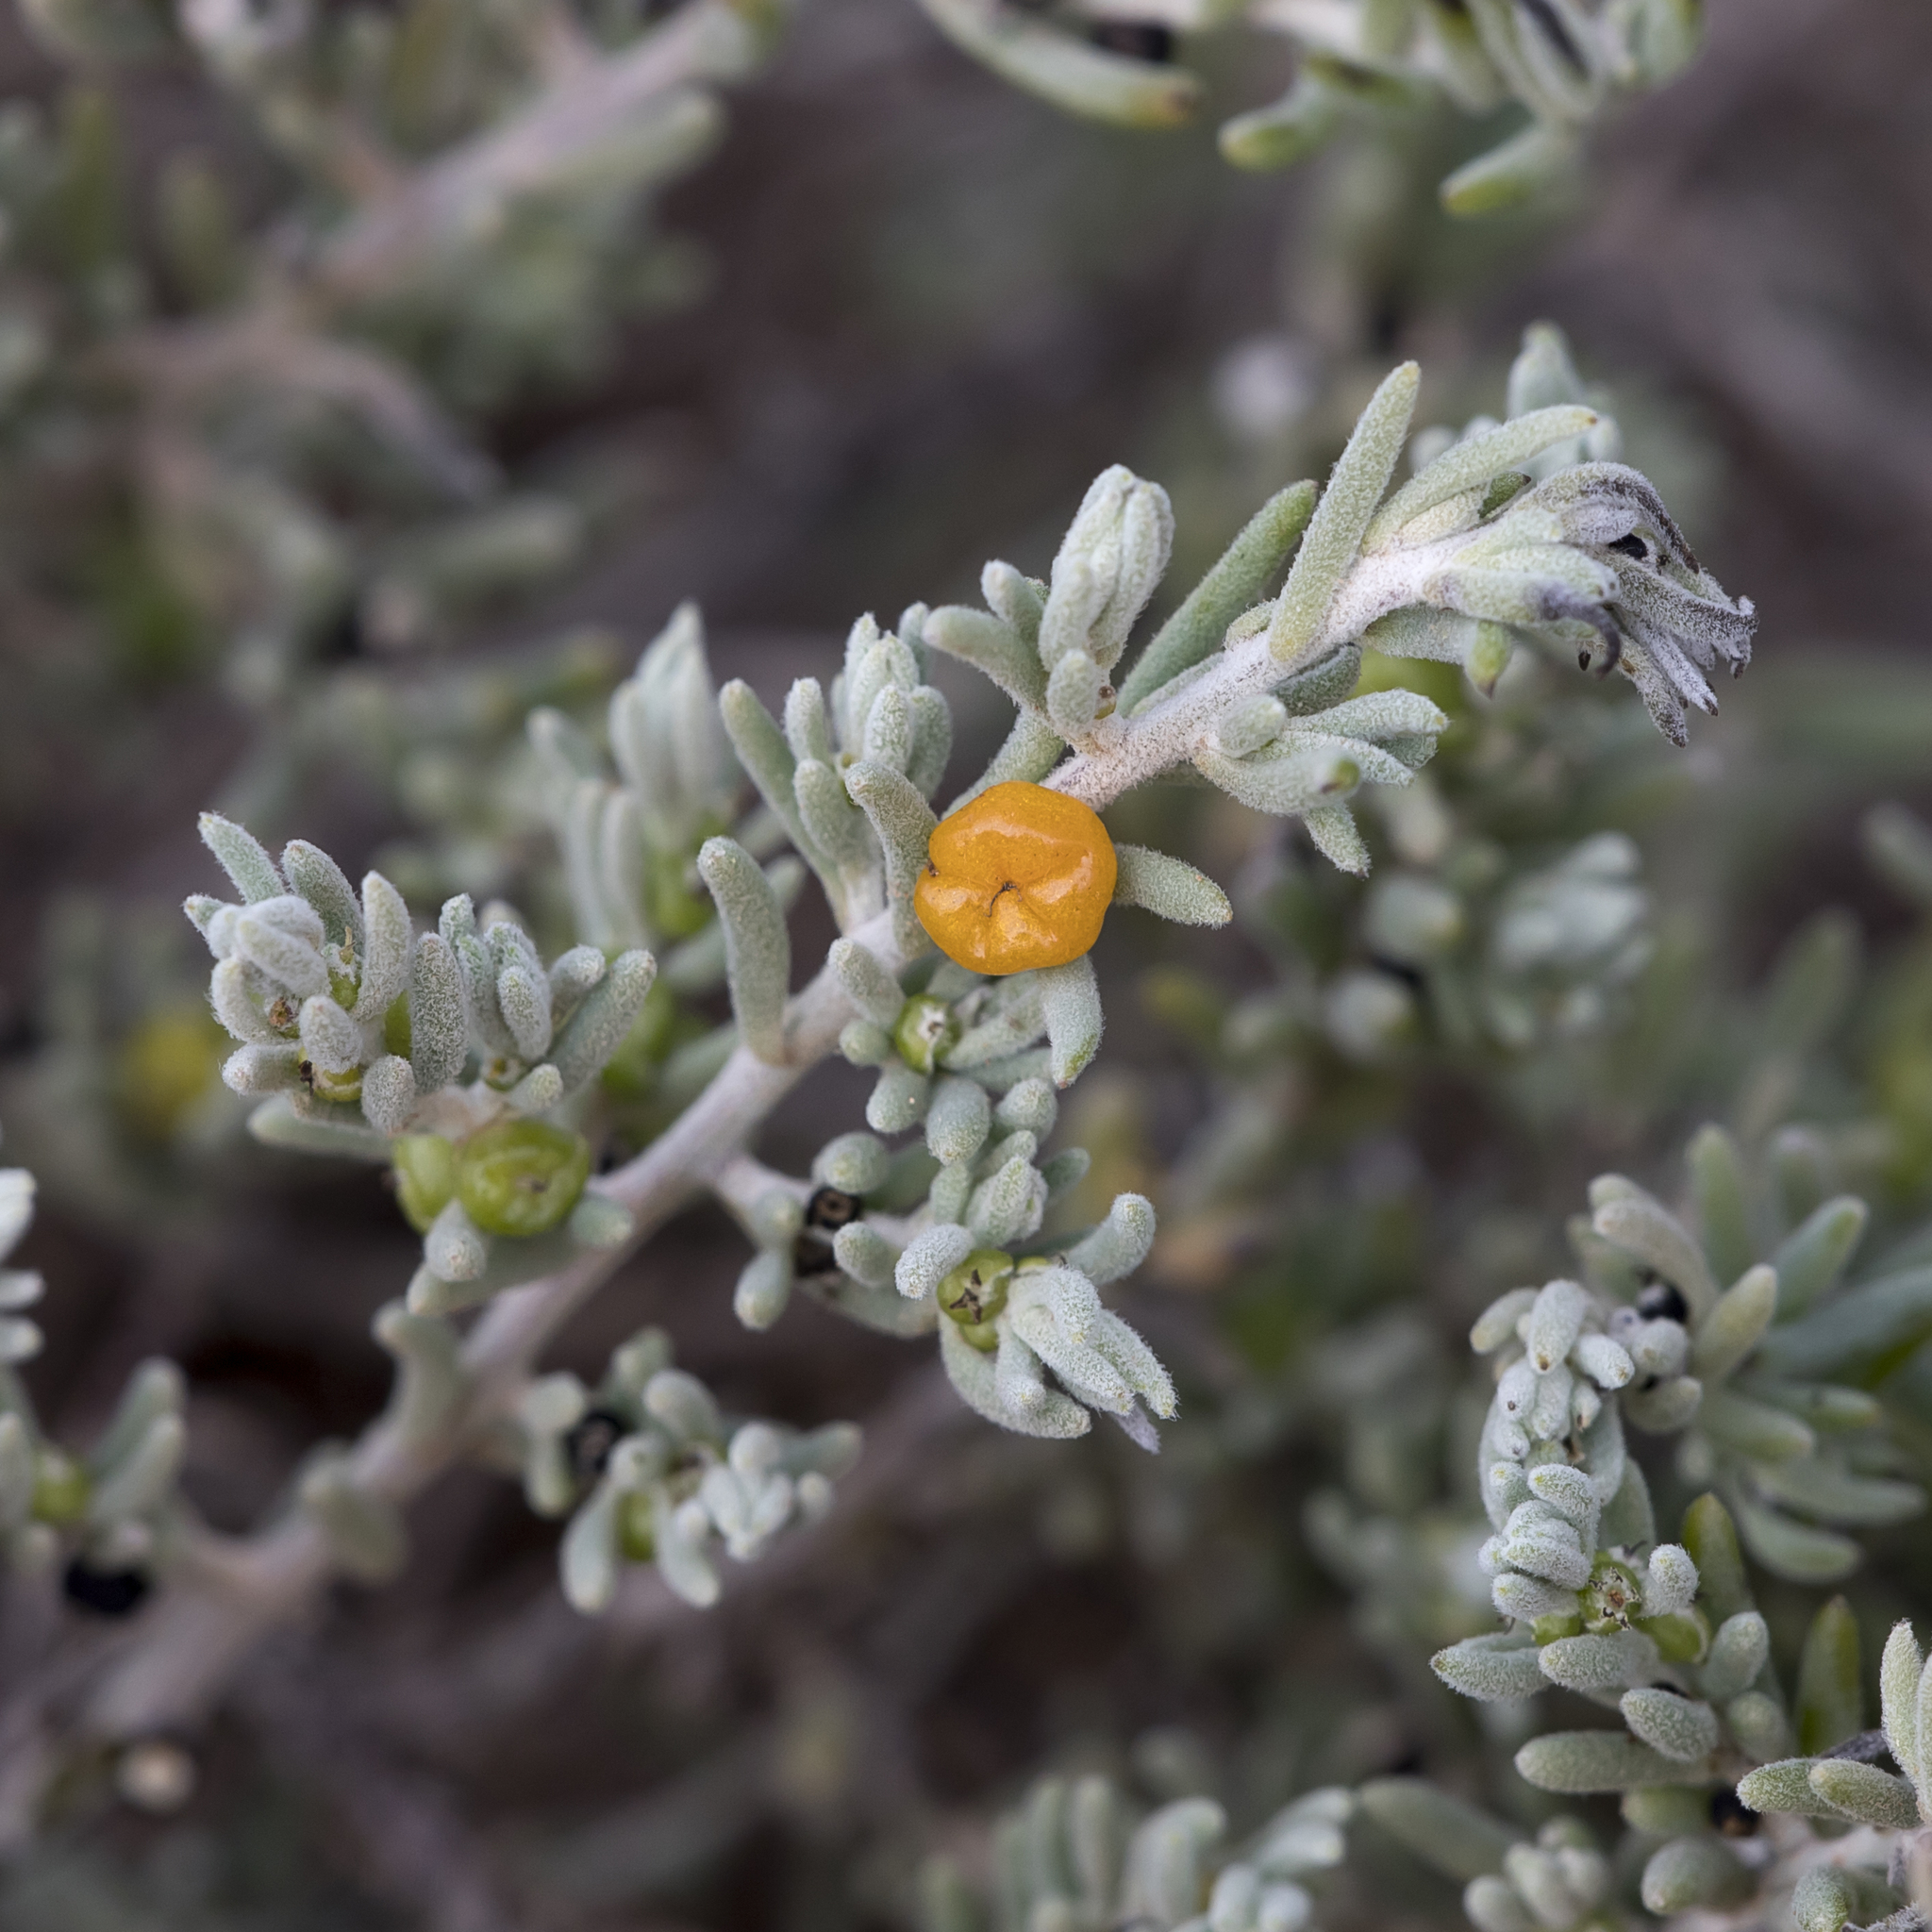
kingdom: Plantae
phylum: Tracheophyta
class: Magnoliopsida
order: Caryophyllales
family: Amaranthaceae
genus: Enchylaena
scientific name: Enchylaena tomentosa
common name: Ruby saltbush
